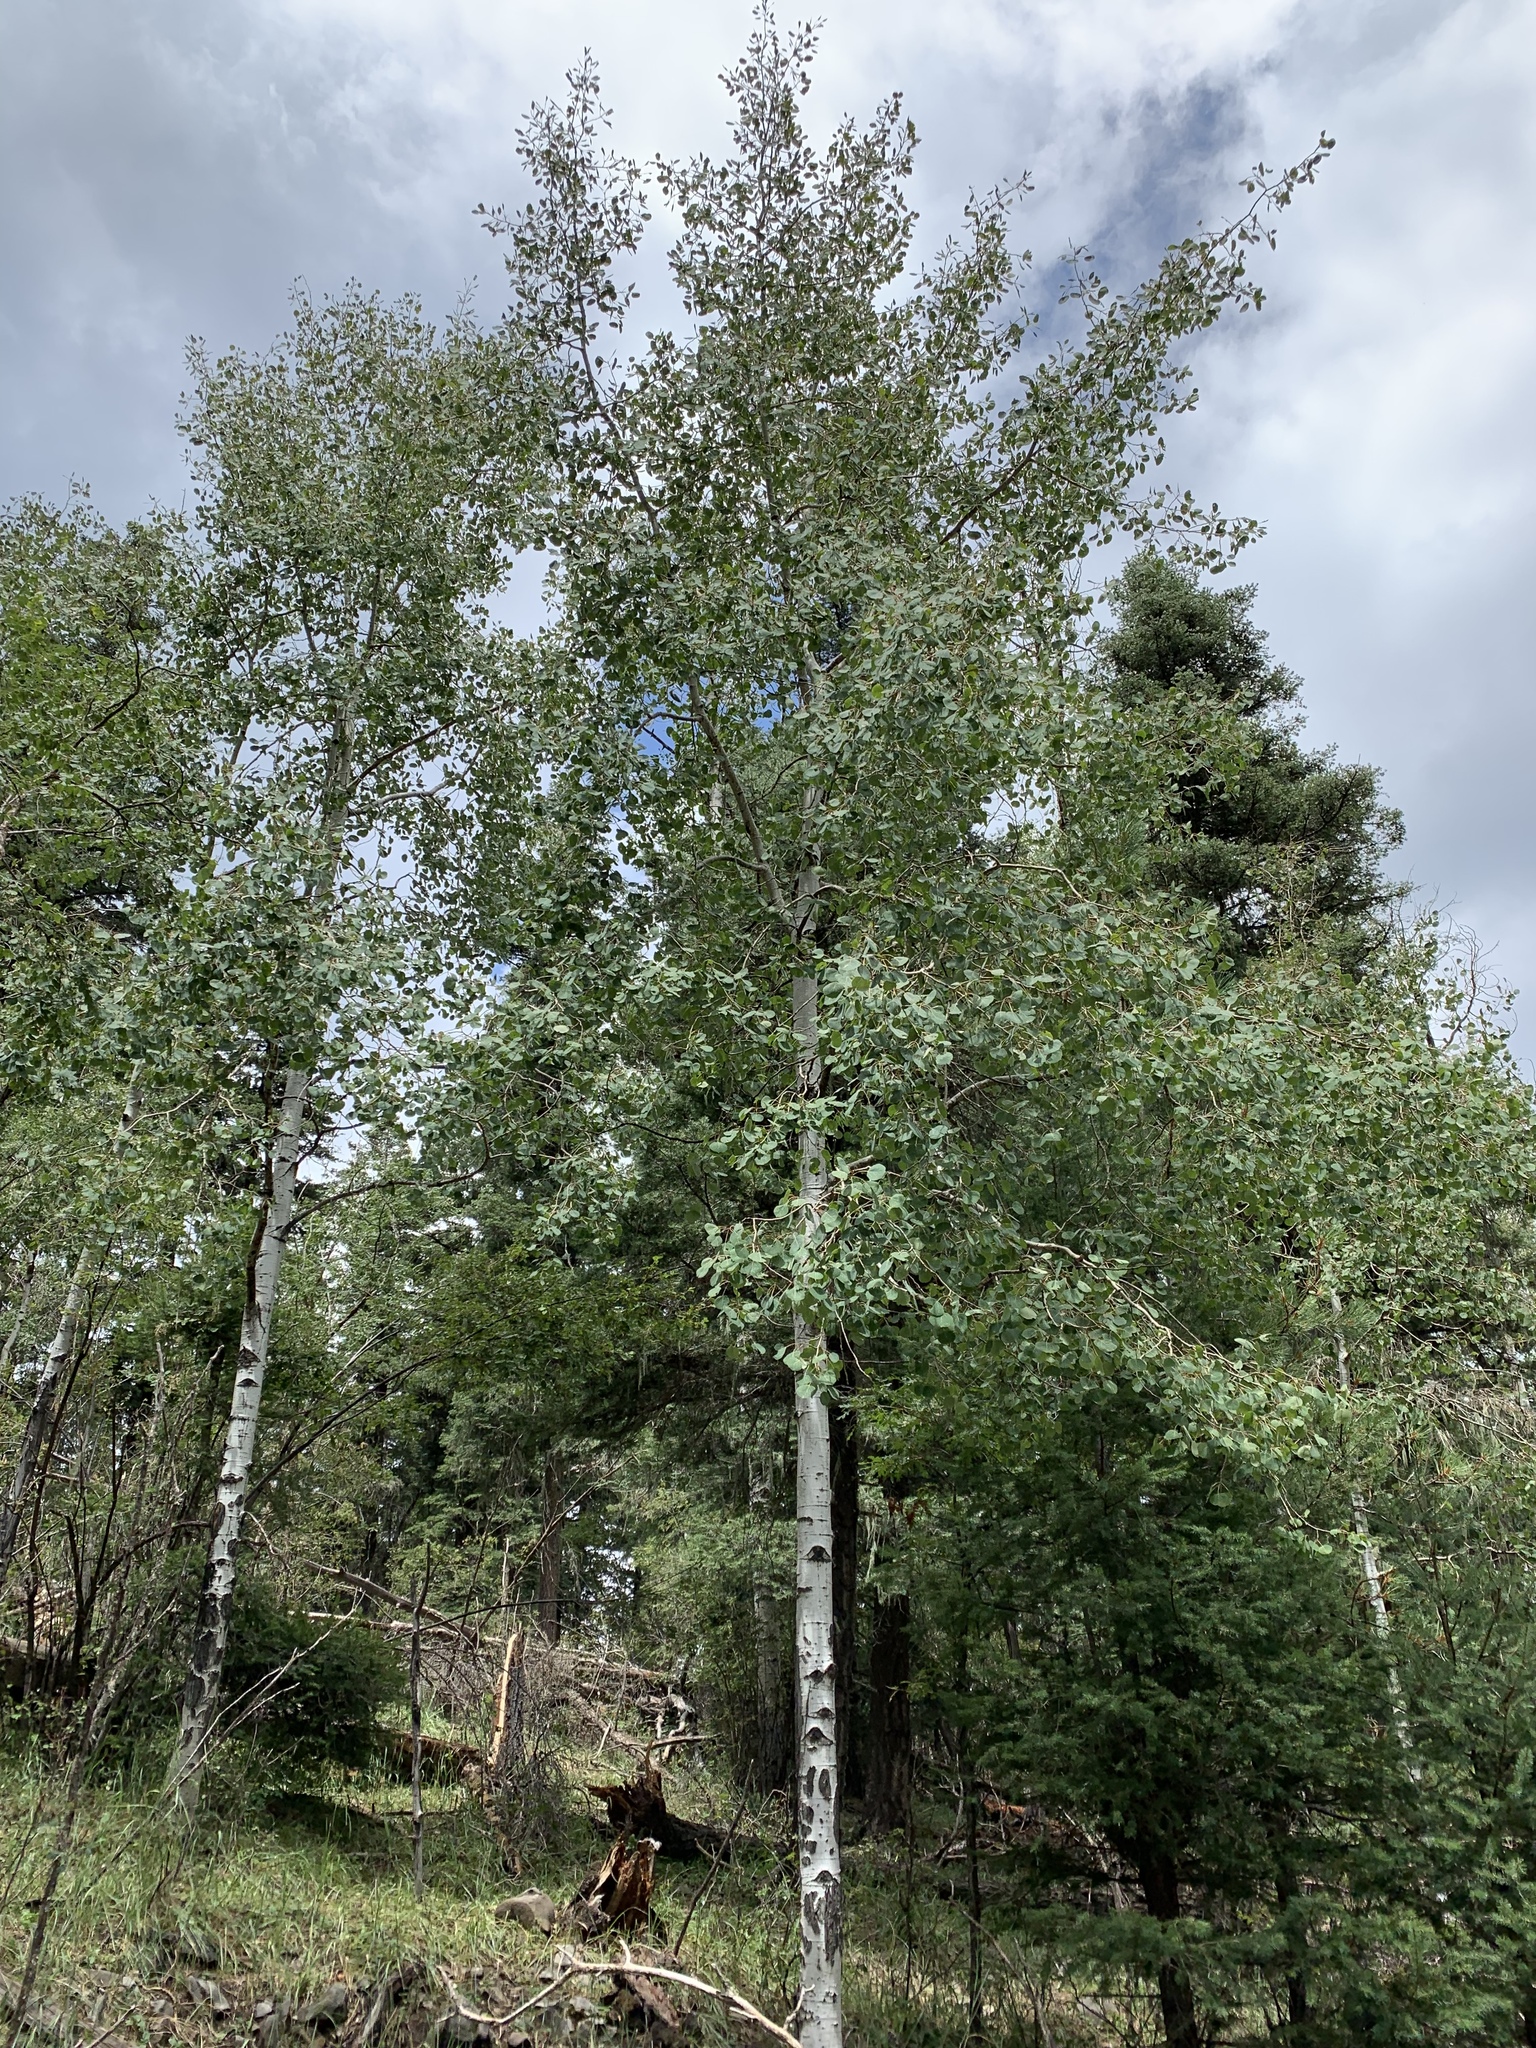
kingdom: Plantae
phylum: Tracheophyta
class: Magnoliopsida
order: Malpighiales
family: Salicaceae
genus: Populus
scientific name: Populus tremuloides
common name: Quaking aspen
